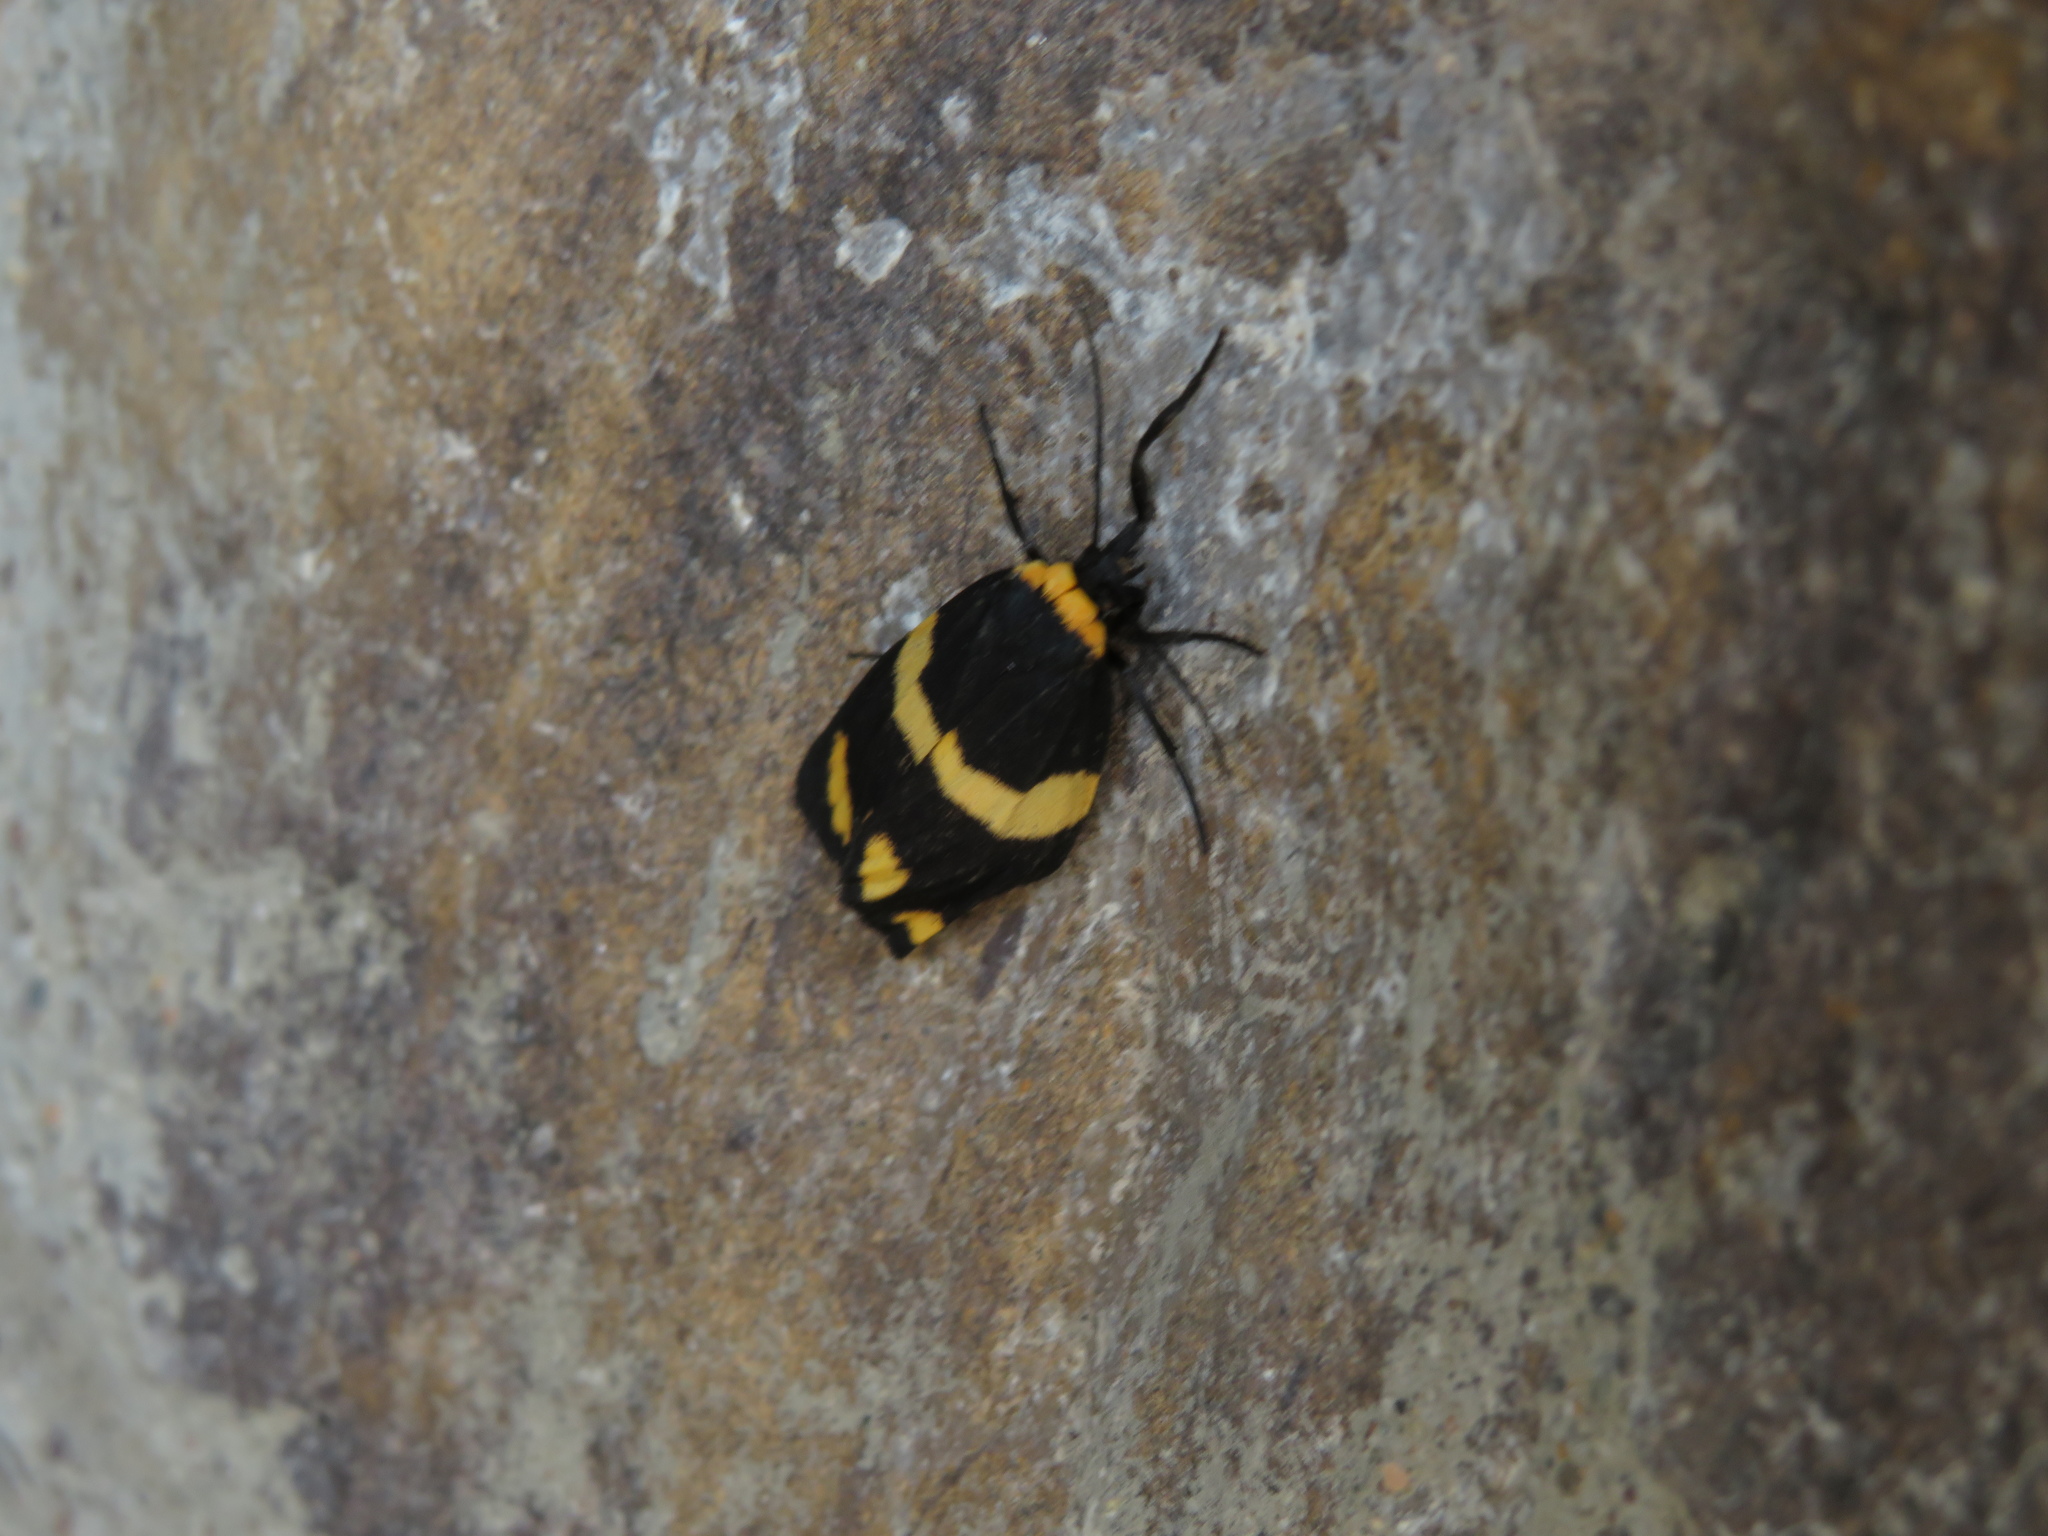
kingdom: Animalia
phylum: Arthropoda
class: Insecta
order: Lepidoptera
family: Erebidae
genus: Eudesmia
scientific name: Eudesmia
